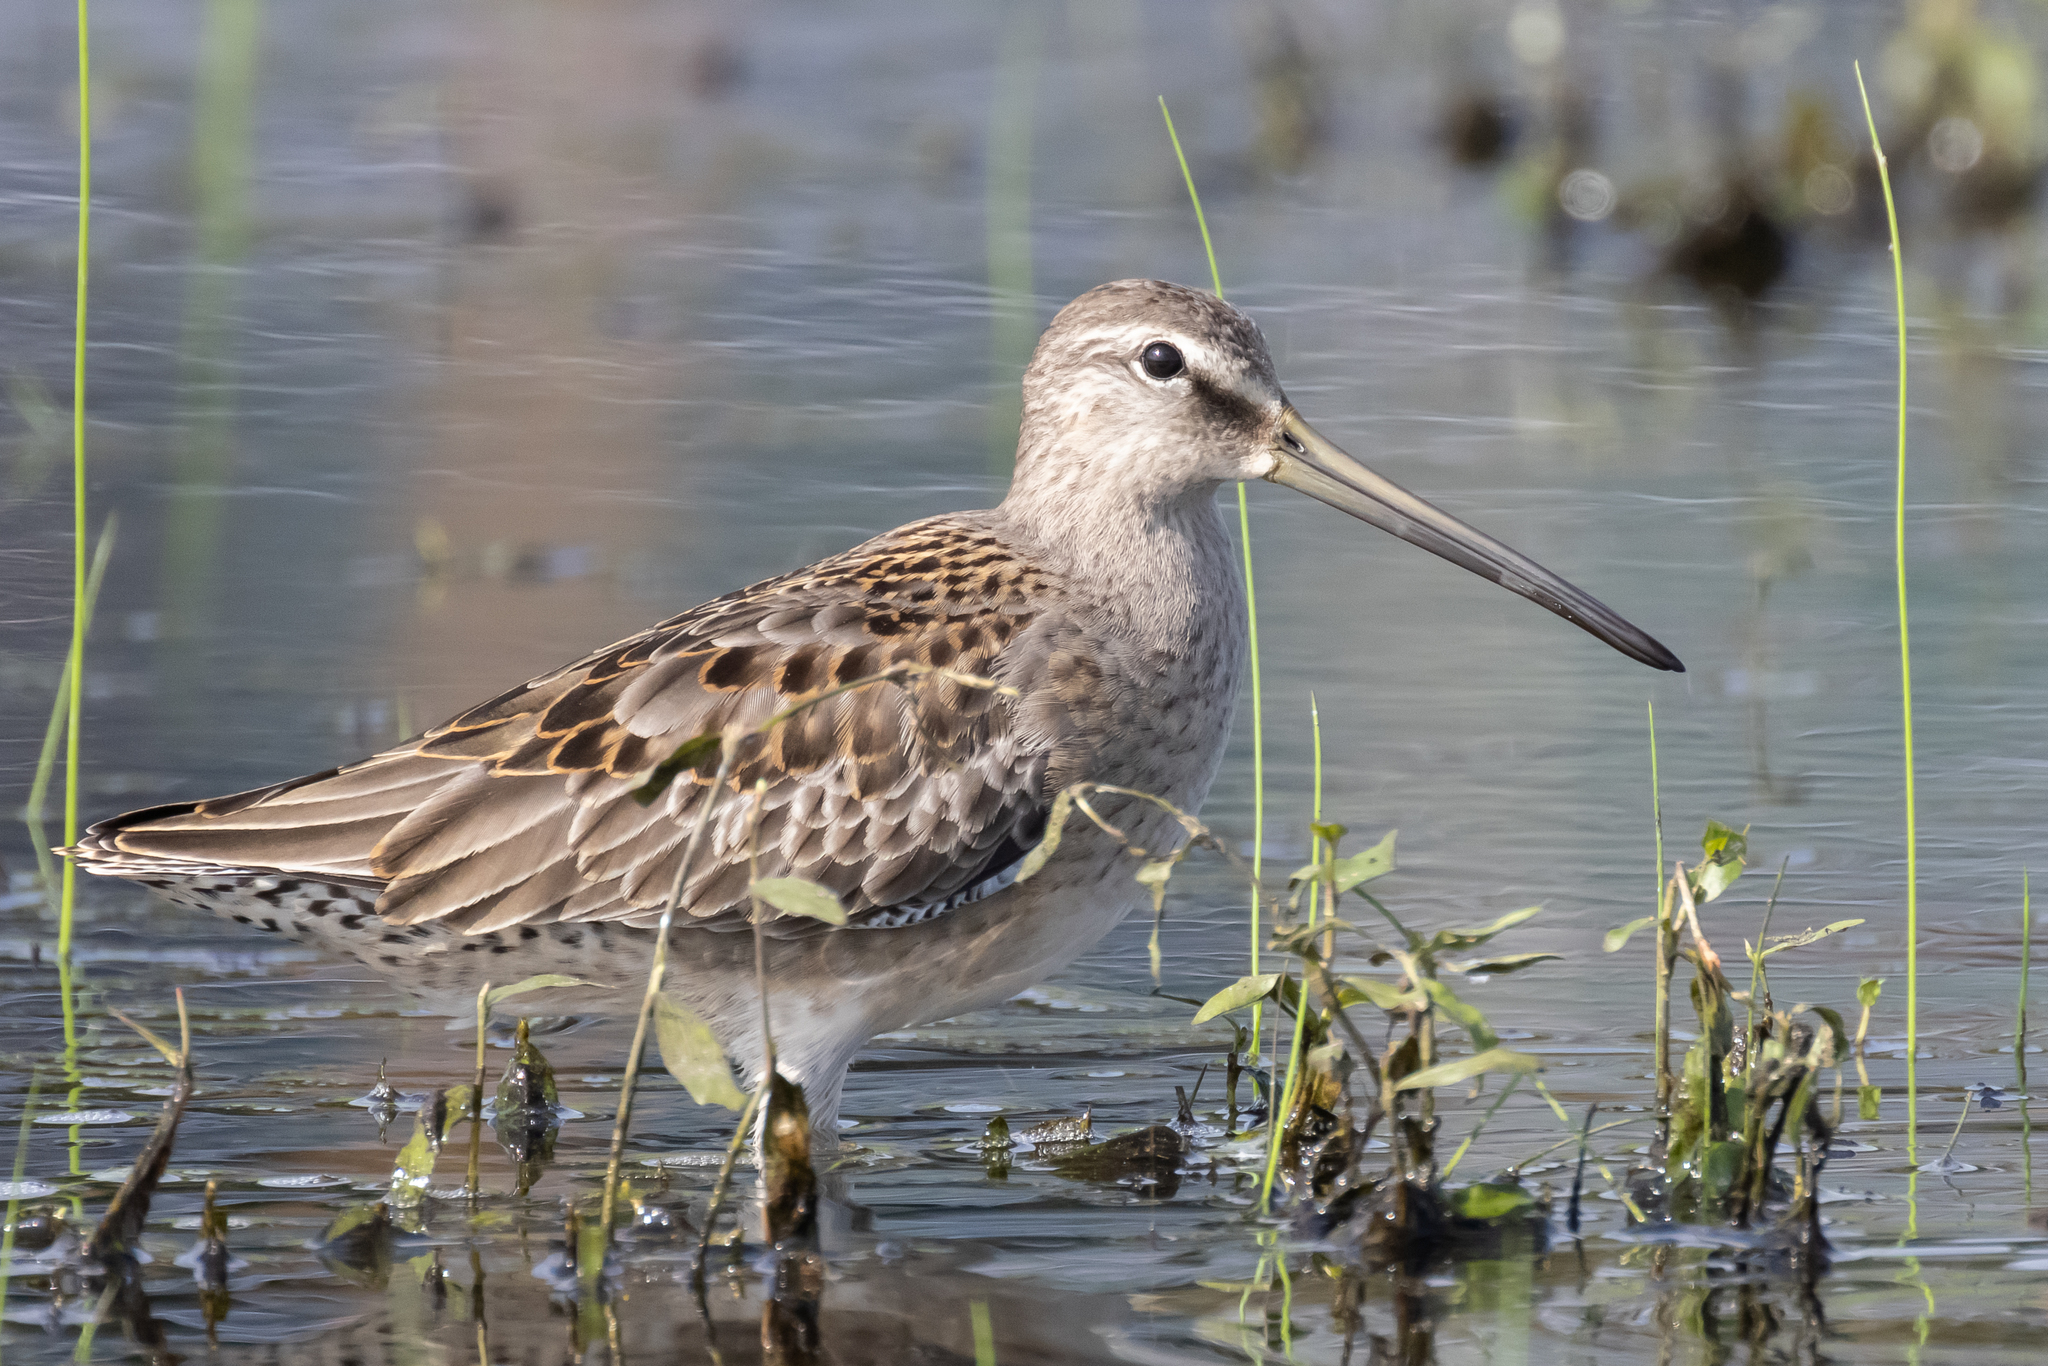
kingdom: Animalia
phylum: Chordata
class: Aves
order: Charadriiformes
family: Scolopacidae
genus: Limnodromus
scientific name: Limnodromus scolopaceus
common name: Long-billed dowitcher
